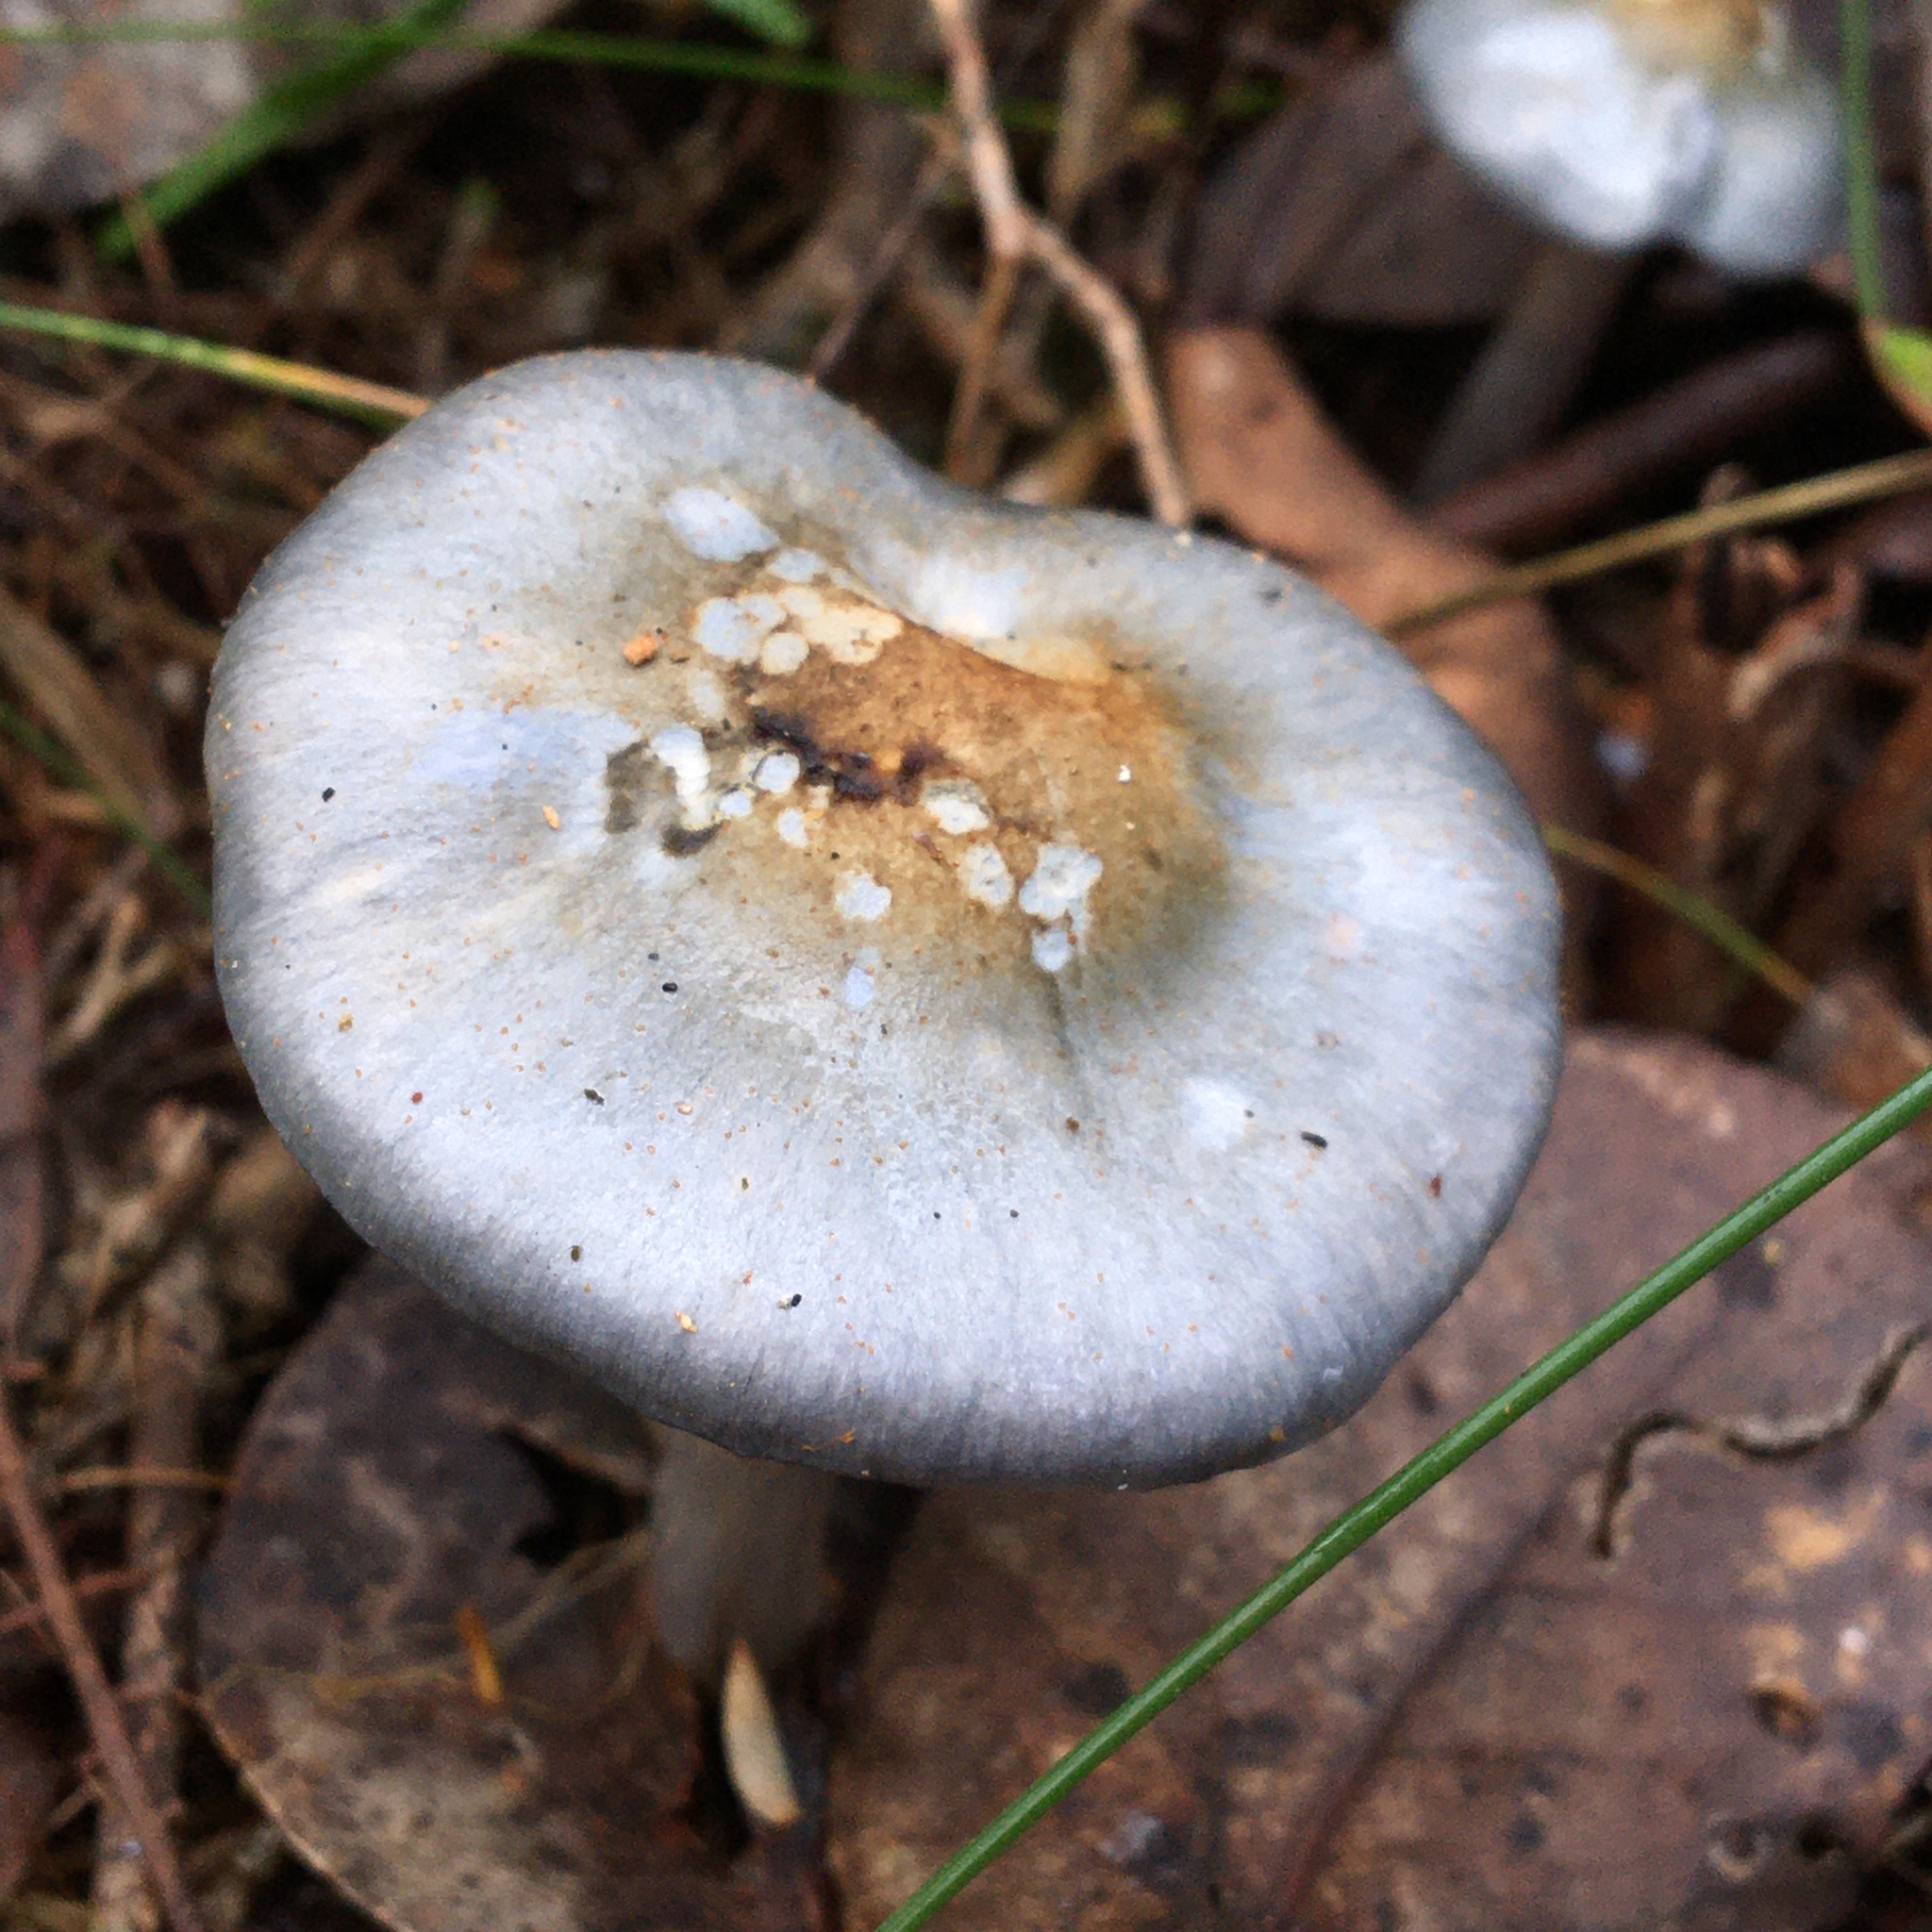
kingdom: Fungi
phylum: Basidiomycota
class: Agaricomycetes
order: Agaricales
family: Cortinariaceae
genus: Cortinarius
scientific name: Cortinarius rotundisporus
